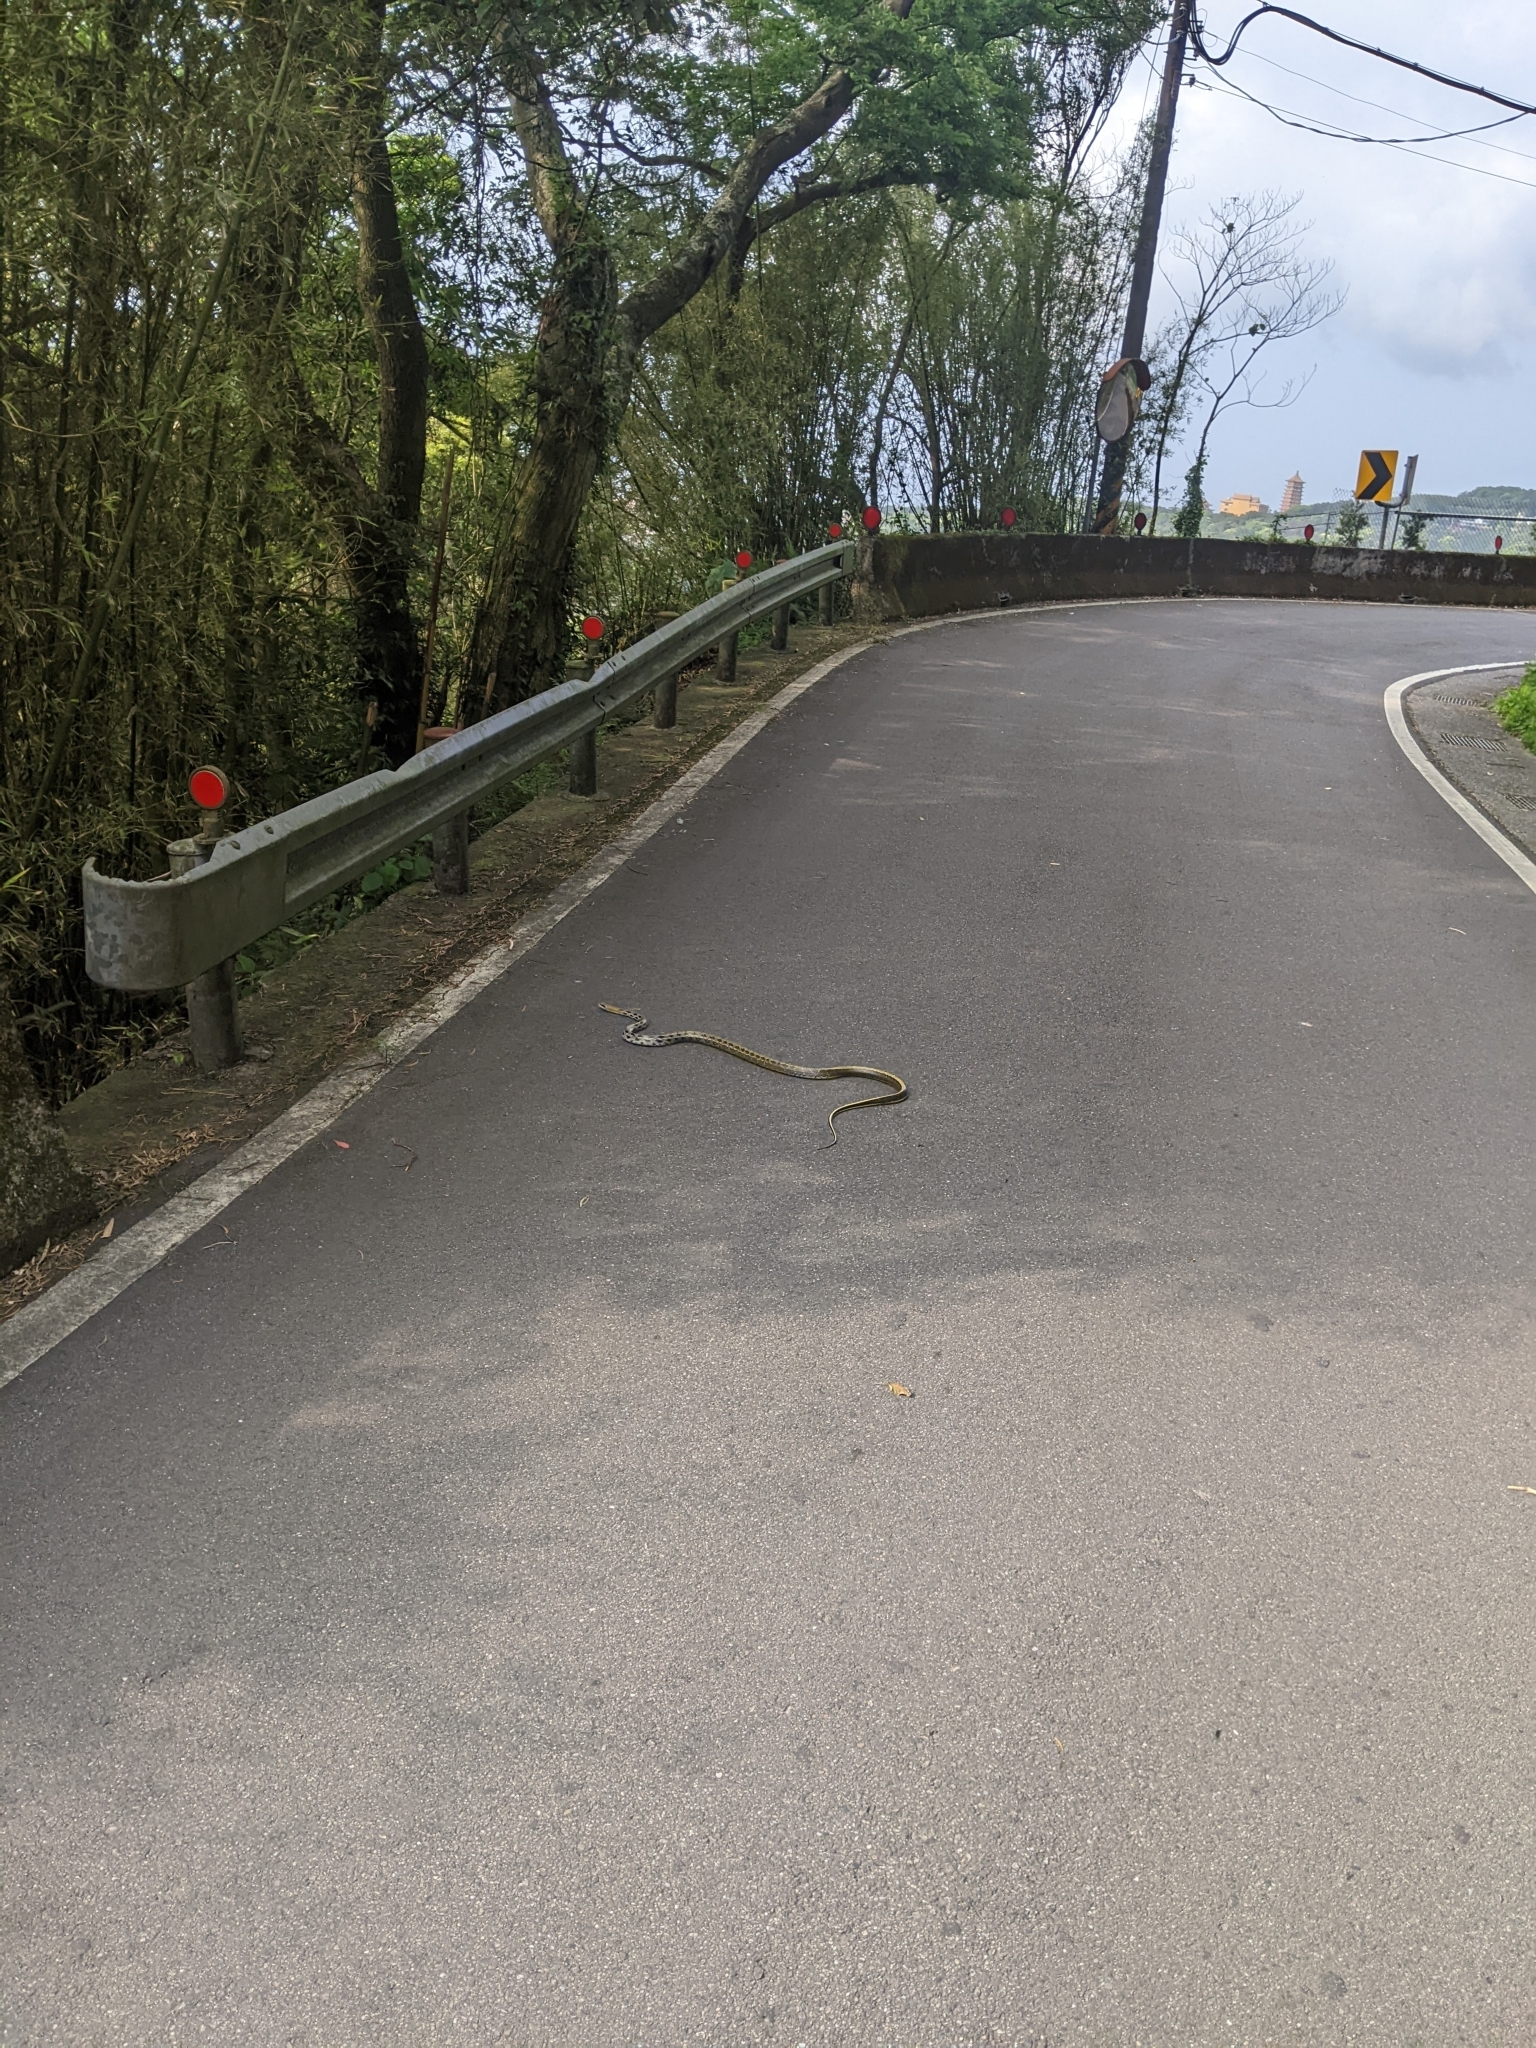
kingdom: Animalia
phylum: Chordata
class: Squamata
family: Colubridae
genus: Elaphe
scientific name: Elaphe taeniura
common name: Beauty snake
